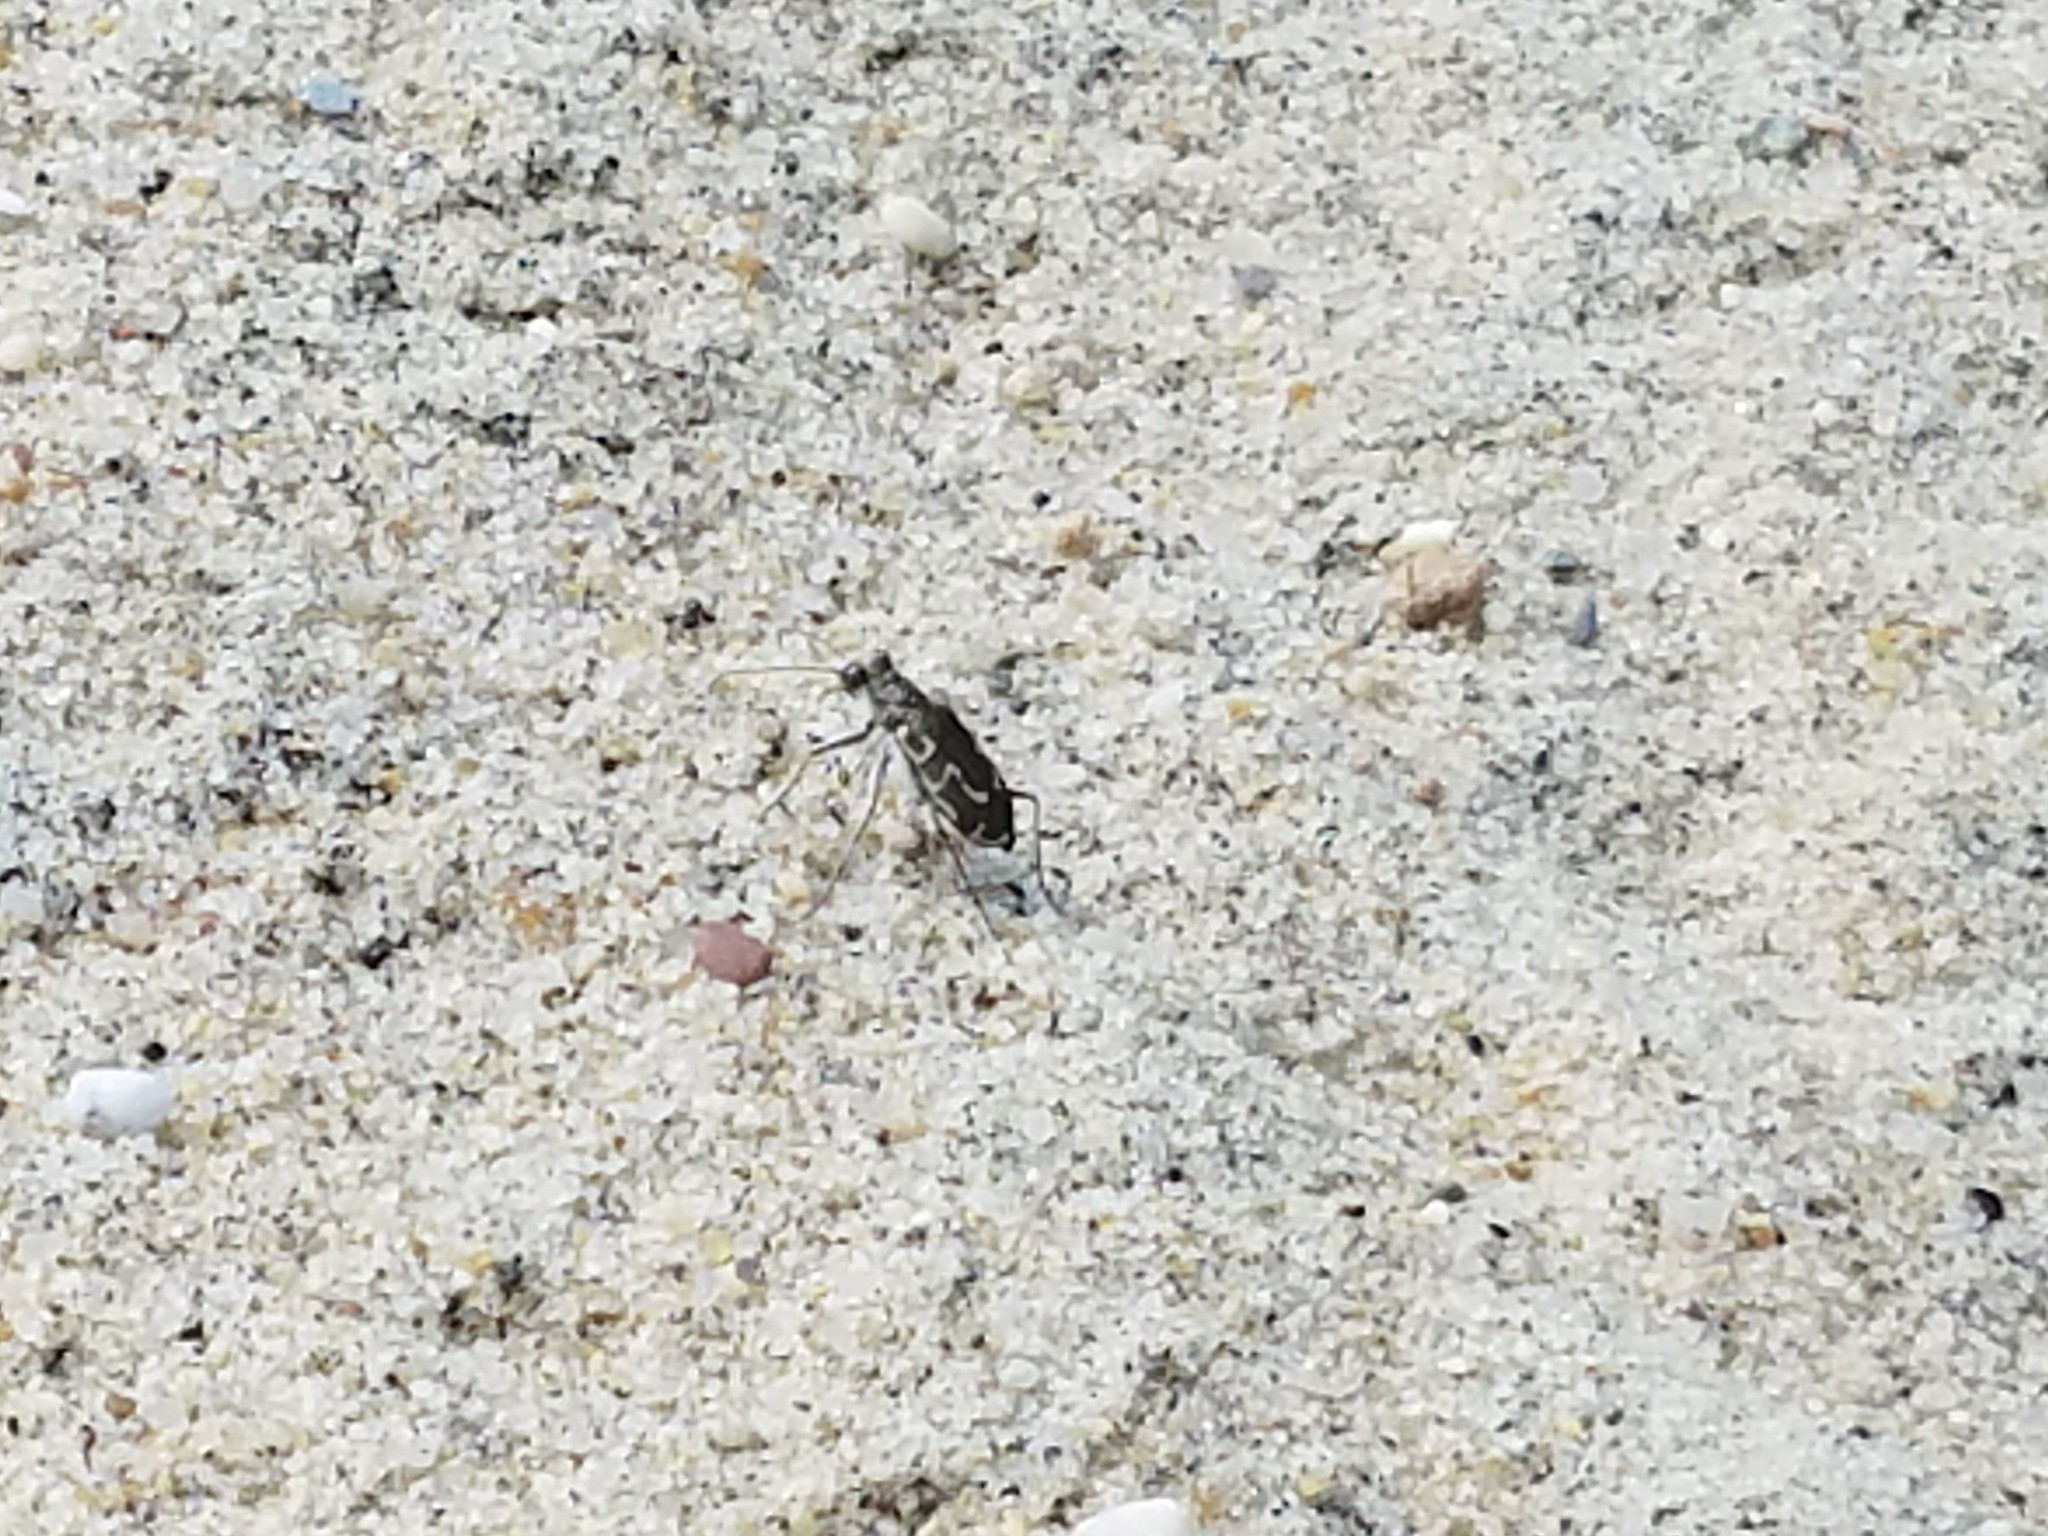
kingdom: Animalia
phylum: Arthropoda
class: Insecta
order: Coleoptera
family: Carabidae
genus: Cicindela
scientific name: Cicindela hirticollis
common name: Hairy-necked tiger beetle
